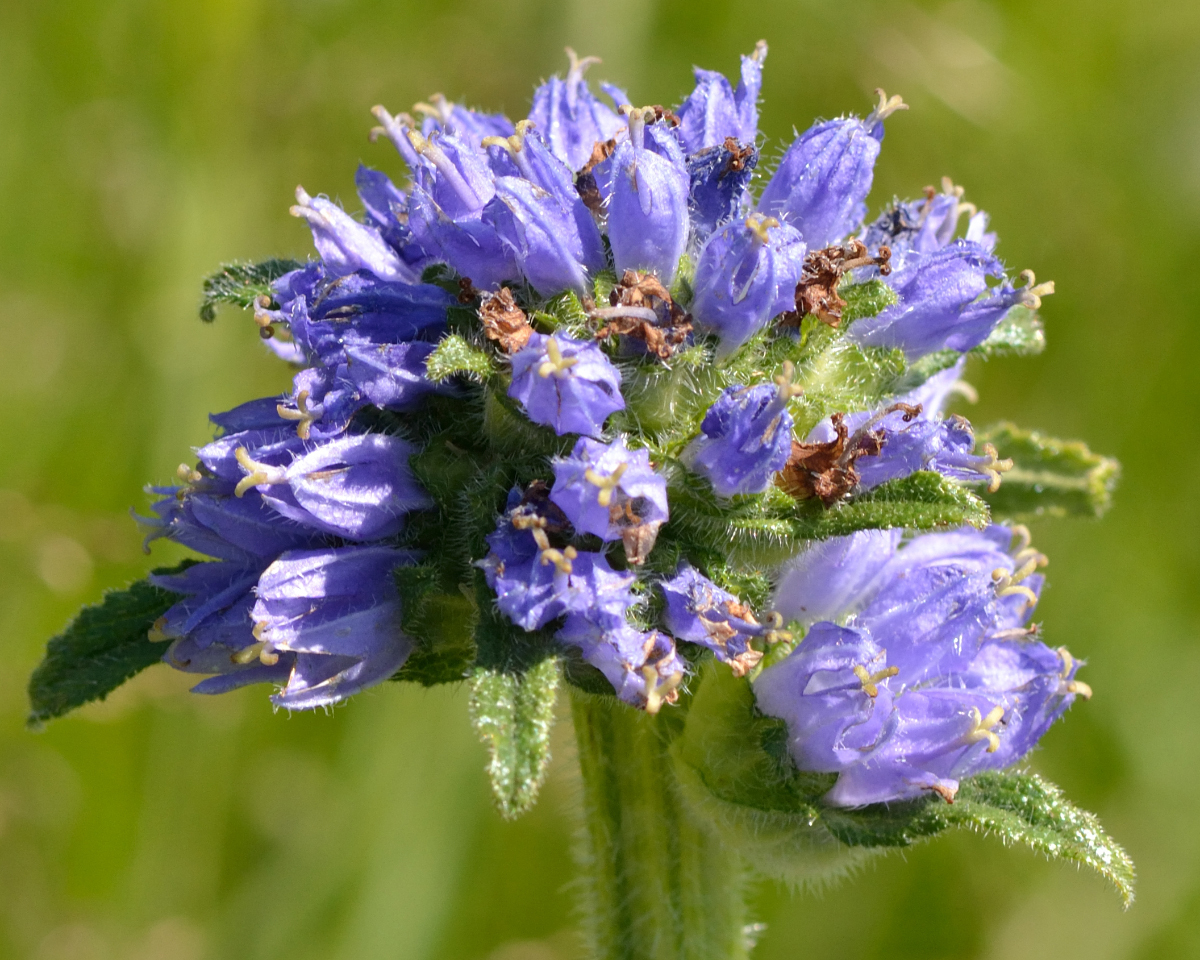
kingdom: Plantae
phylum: Tracheophyta
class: Magnoliopsida
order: Asterales
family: Campanulaceae
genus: Campanula
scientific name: Campanula cervicaria
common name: Bristly bellflower
